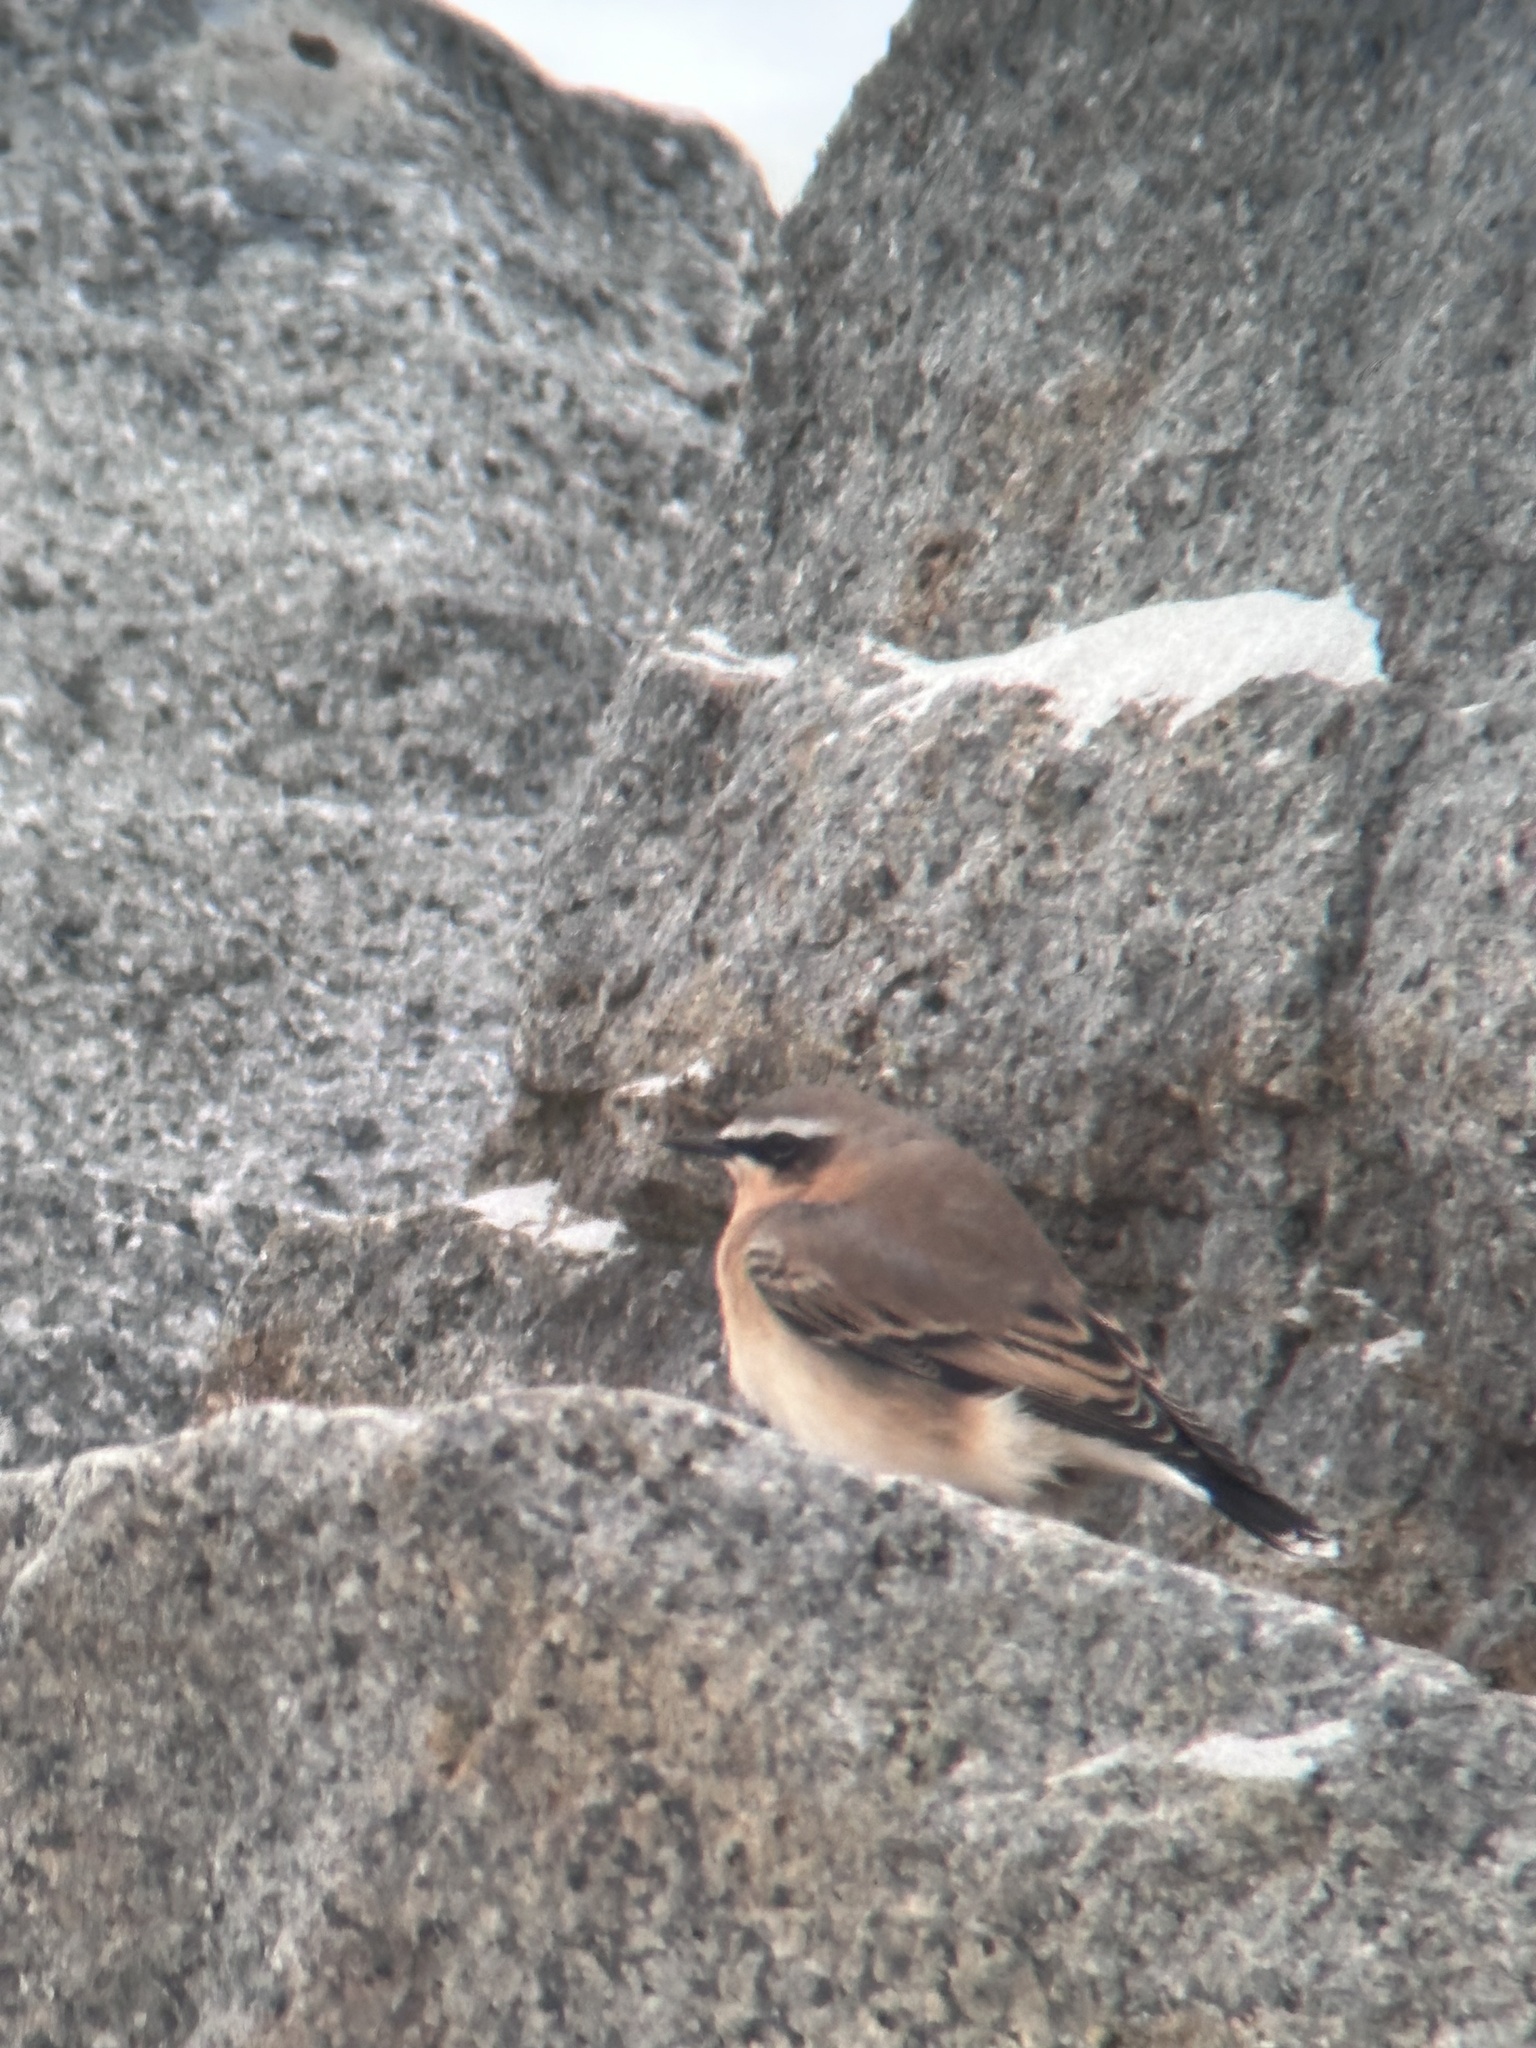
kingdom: Animalia
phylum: Chordata
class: Aves
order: Passeriformes
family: Muscicapidae
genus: Oenanthe
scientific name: Oenanthe oenanthe
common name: Northern wheatear
